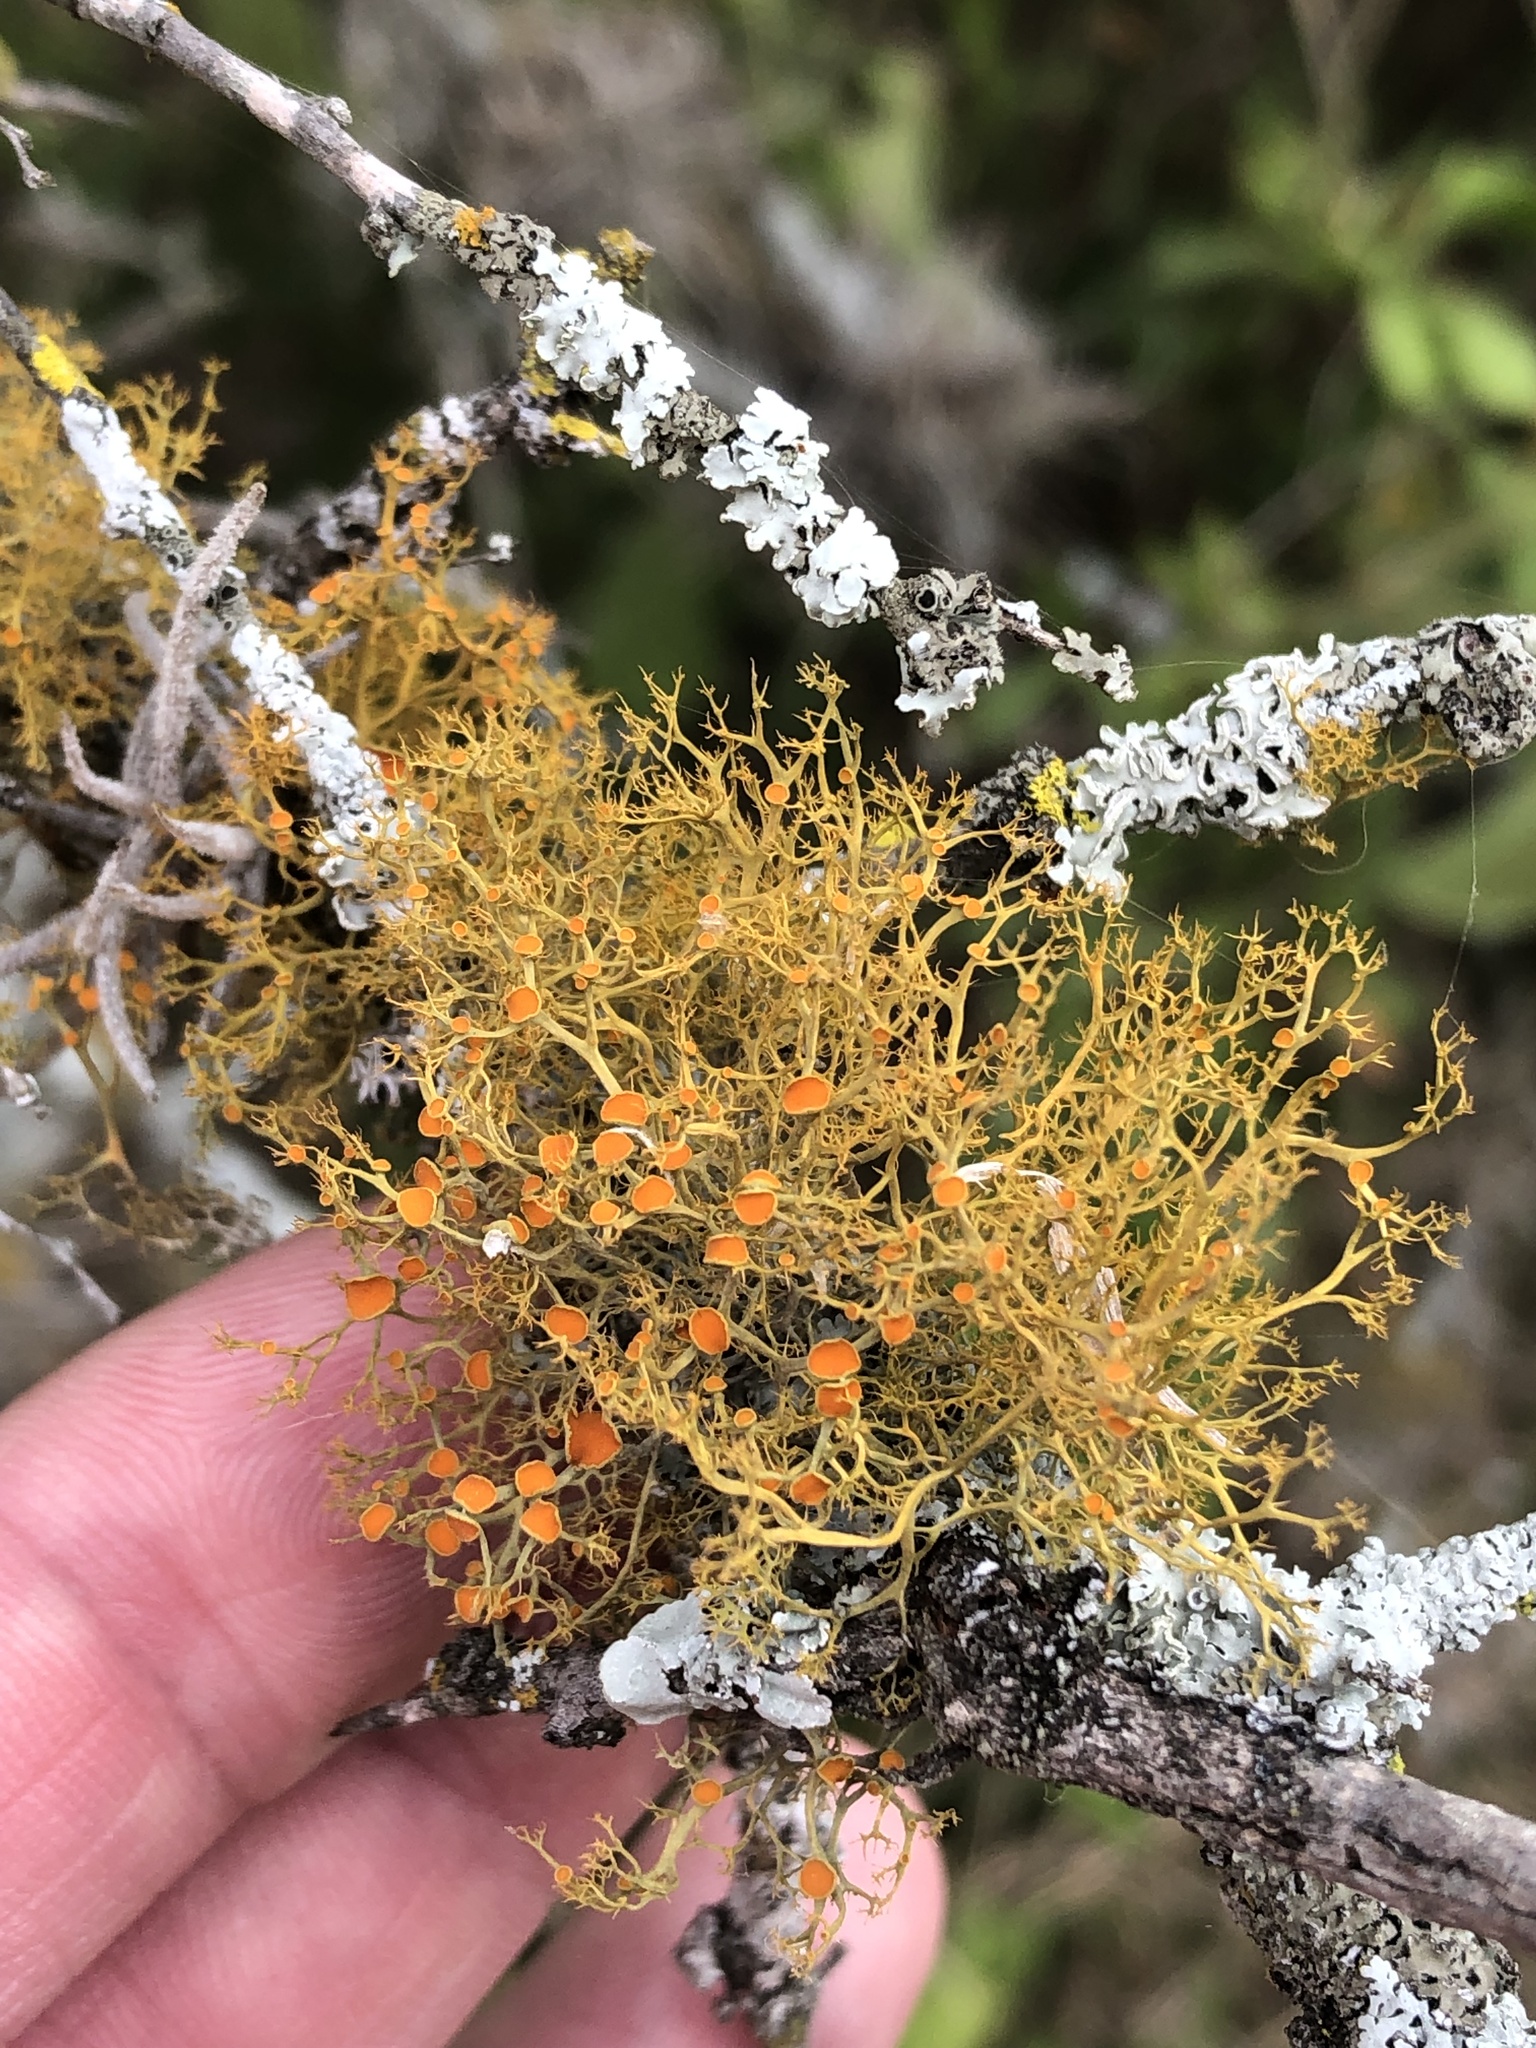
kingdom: Fungi
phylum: Ascomycota
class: Lecanoromycetes
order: Teloschistales
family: Teloschistaceae
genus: Teloschistes
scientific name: Teloschistes exilis
